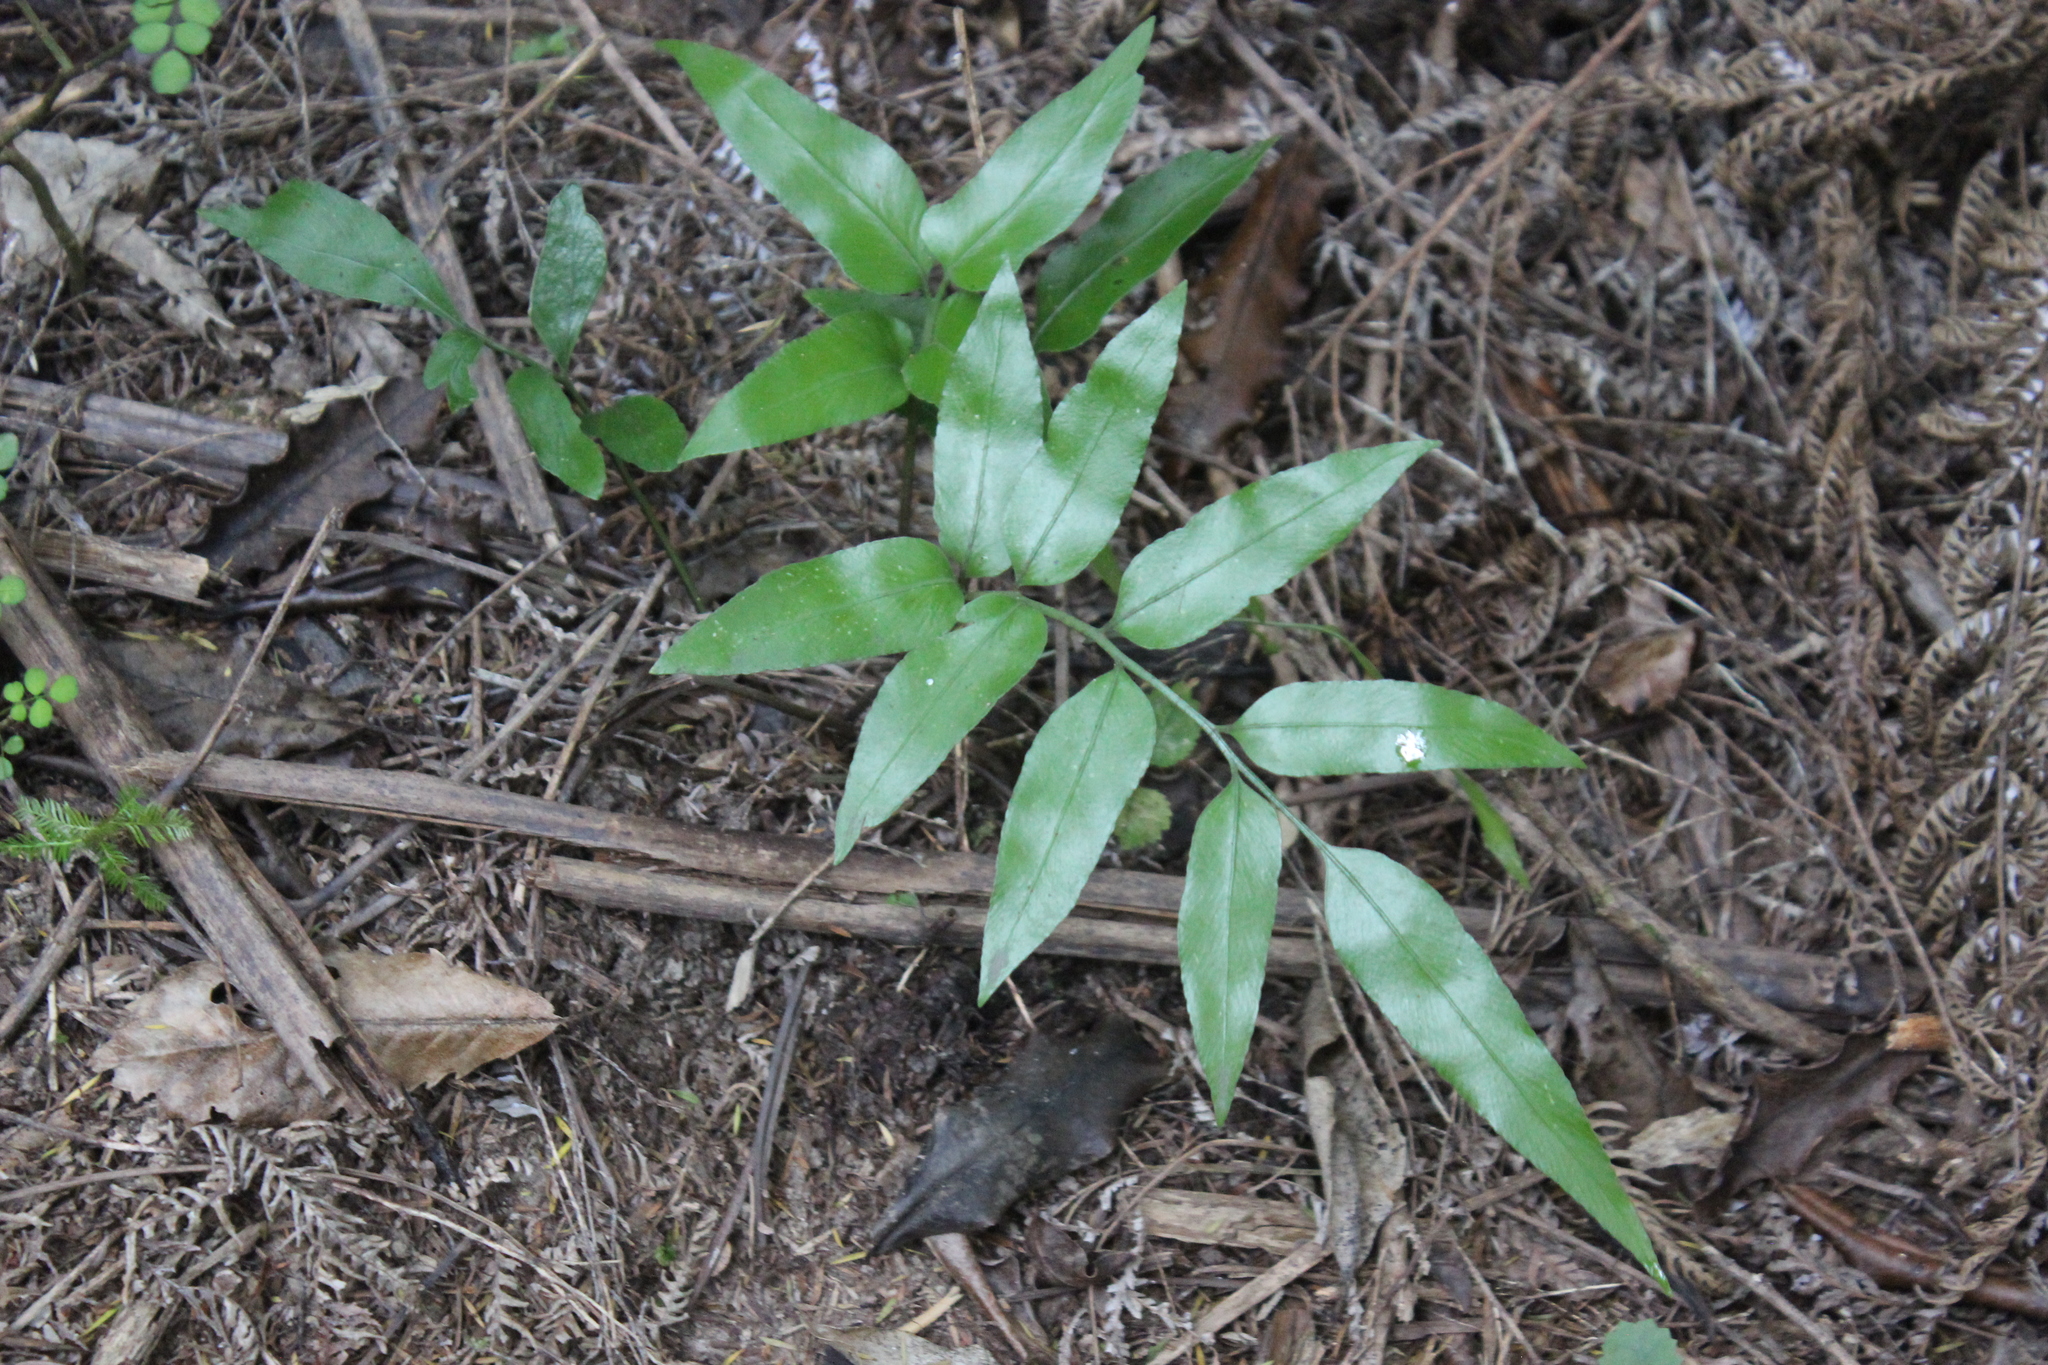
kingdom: Plantae
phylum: Tracheophyta
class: Polypodiopsida
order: Polypodiales
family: Aspleniaceae
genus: Asplenium
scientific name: Asplenium oblongifolium
